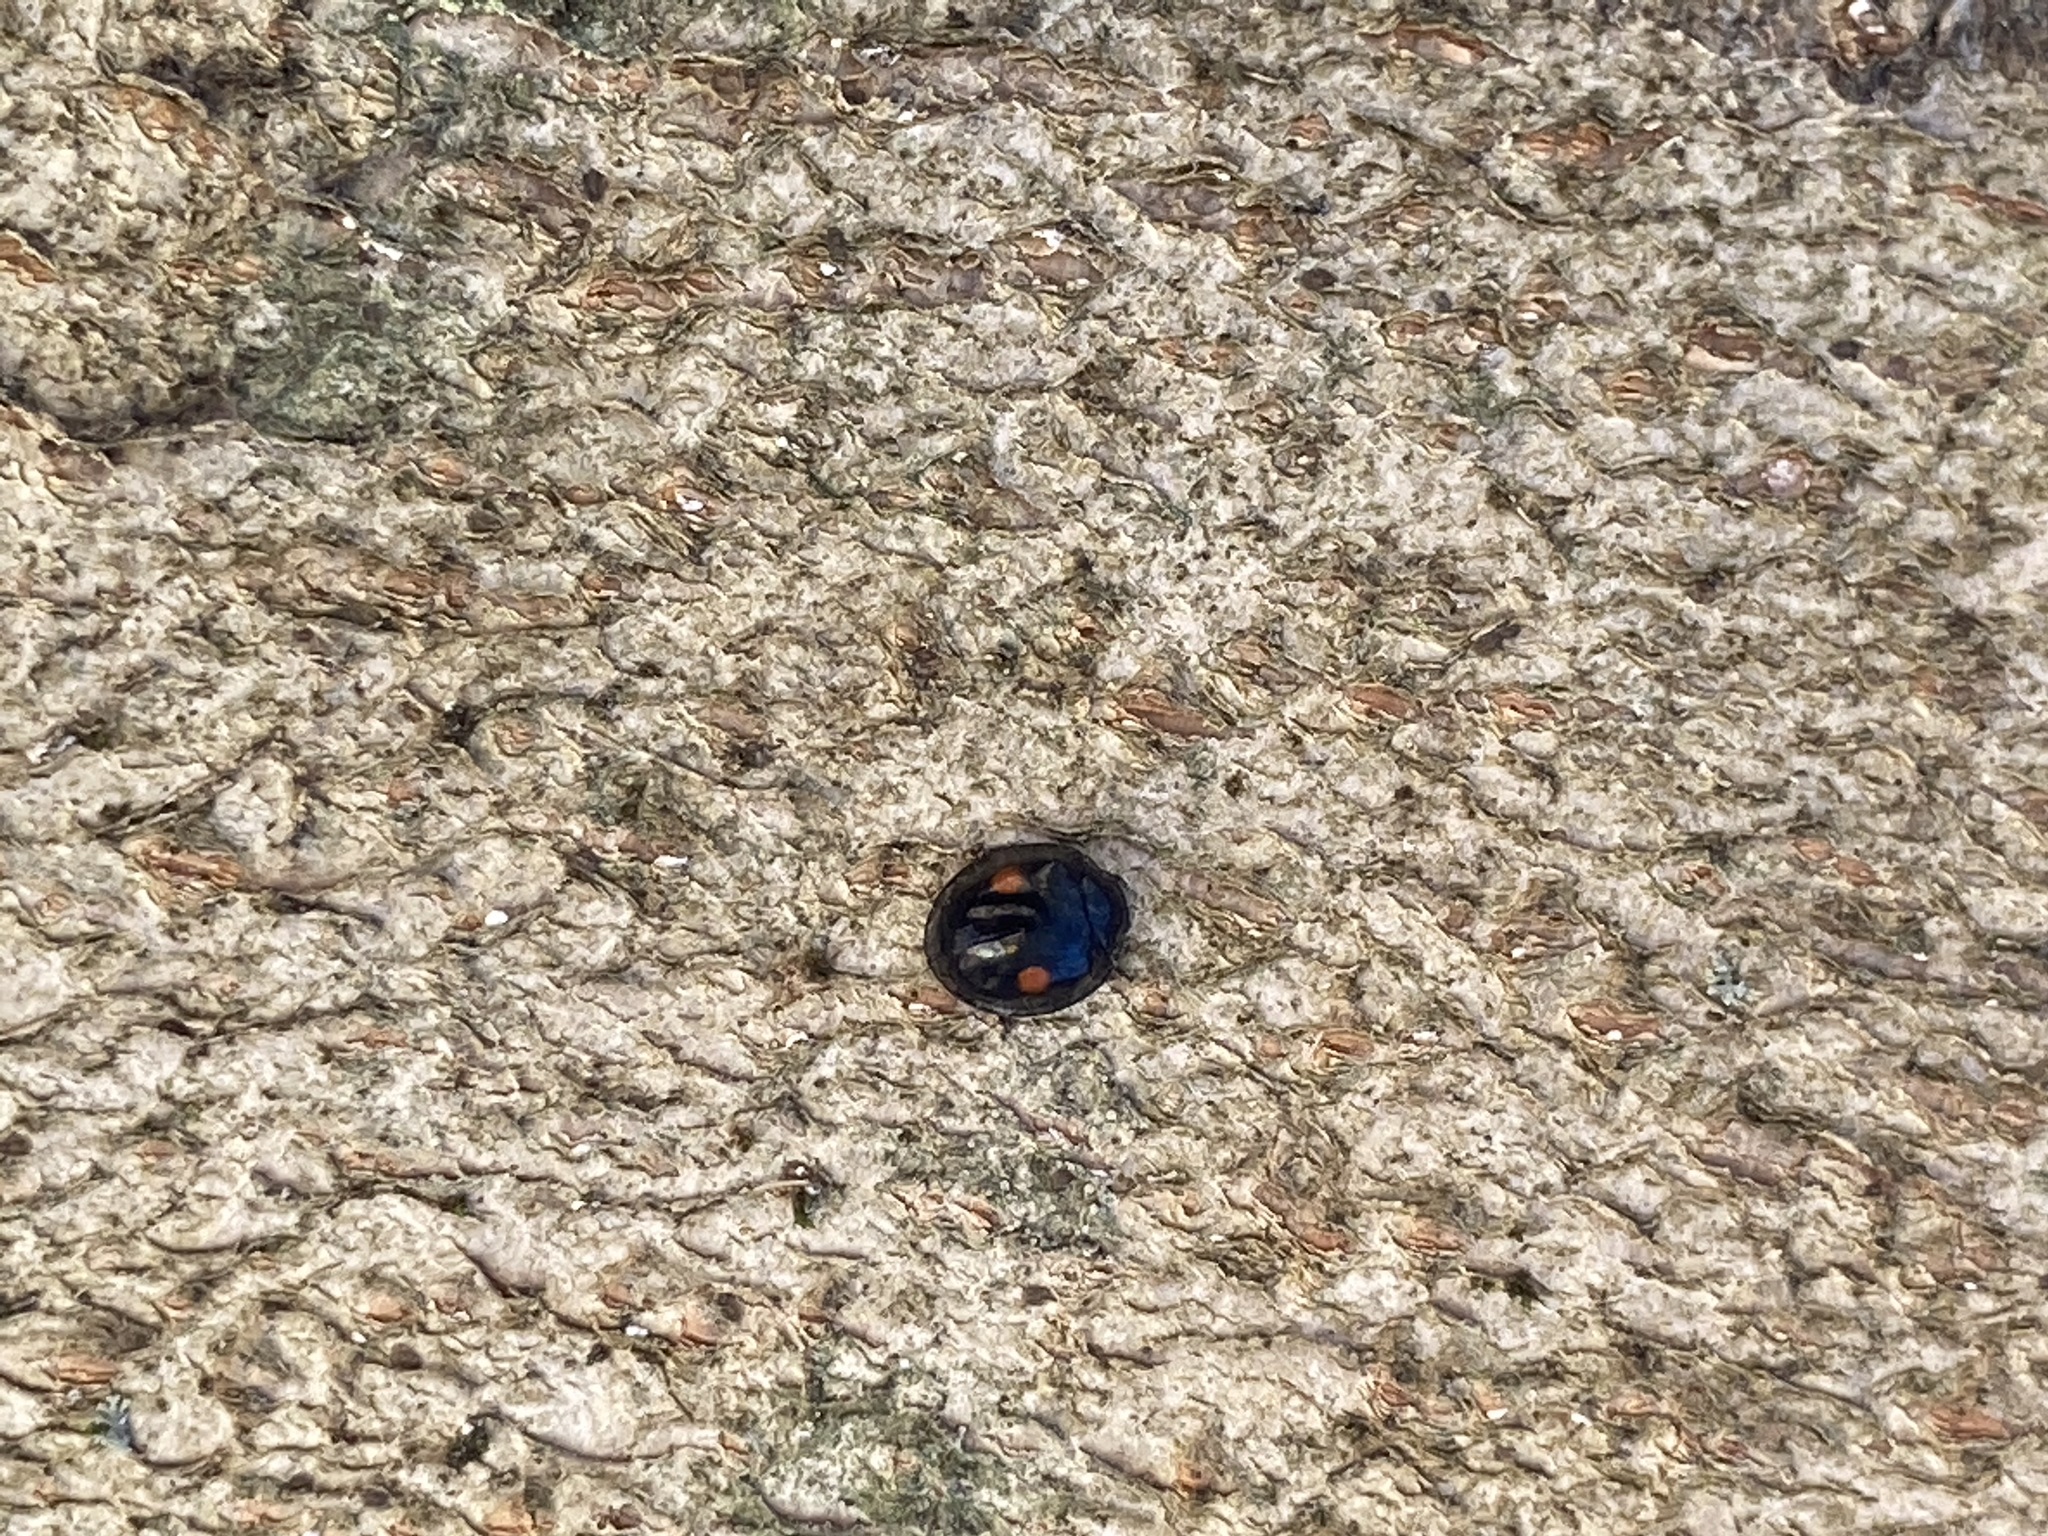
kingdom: Animalia
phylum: Arthropoda
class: Insecta
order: Coleoptera
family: Coccinellidae
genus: Chilocorus
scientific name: Chilocorus stigma
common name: Twicestabbed lady beetle
